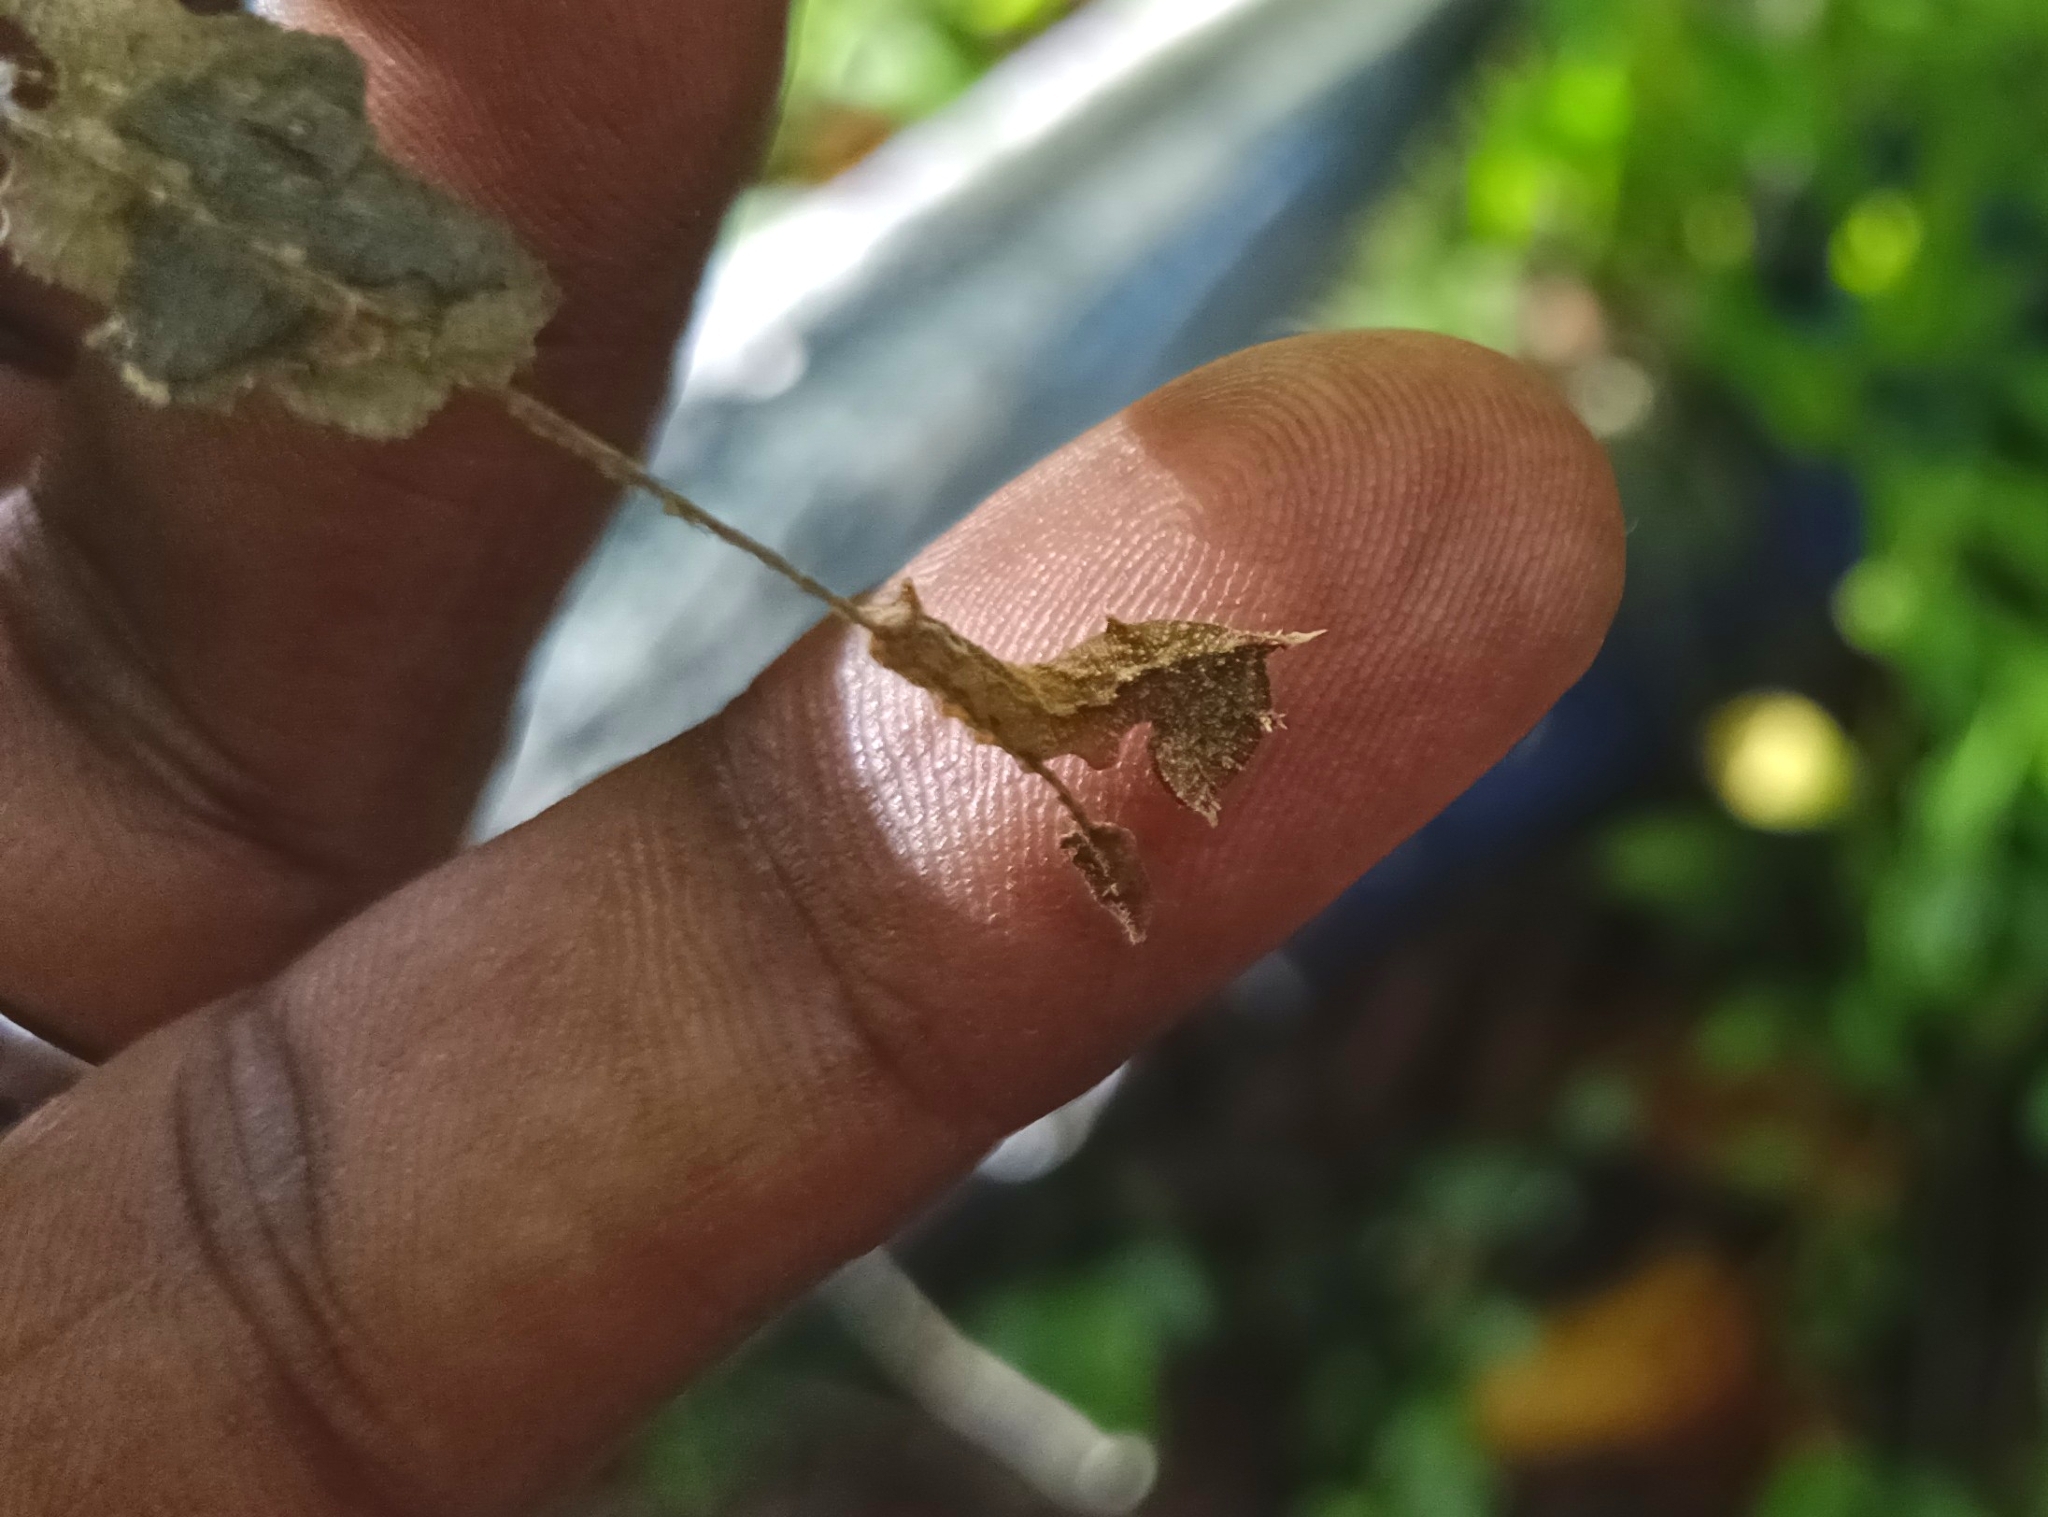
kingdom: Animalia
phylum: Arthropoda
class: Insecta
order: Lepidoptera
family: Nymphalidae
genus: Neptis
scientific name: Neptis jumbah
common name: Chestnut-streaked sailer
